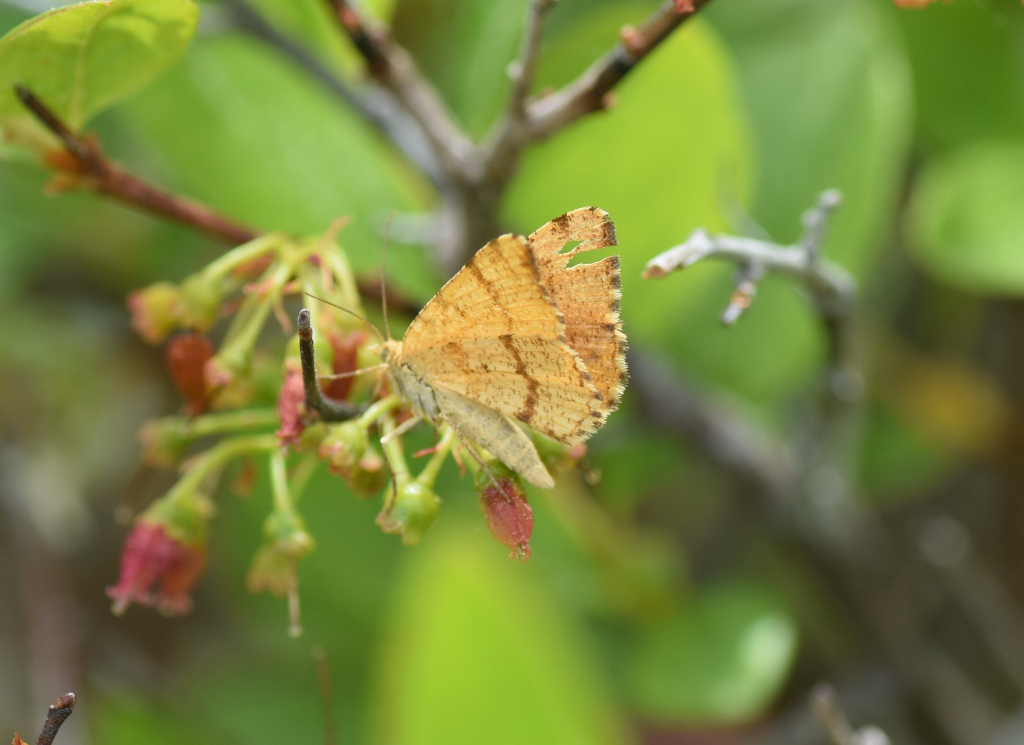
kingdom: Animalia
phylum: Arthropoda
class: Insecta
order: Lepidoptera
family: Geometridae
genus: Macaria
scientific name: Macaria brunneata
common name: Rannoch looper
